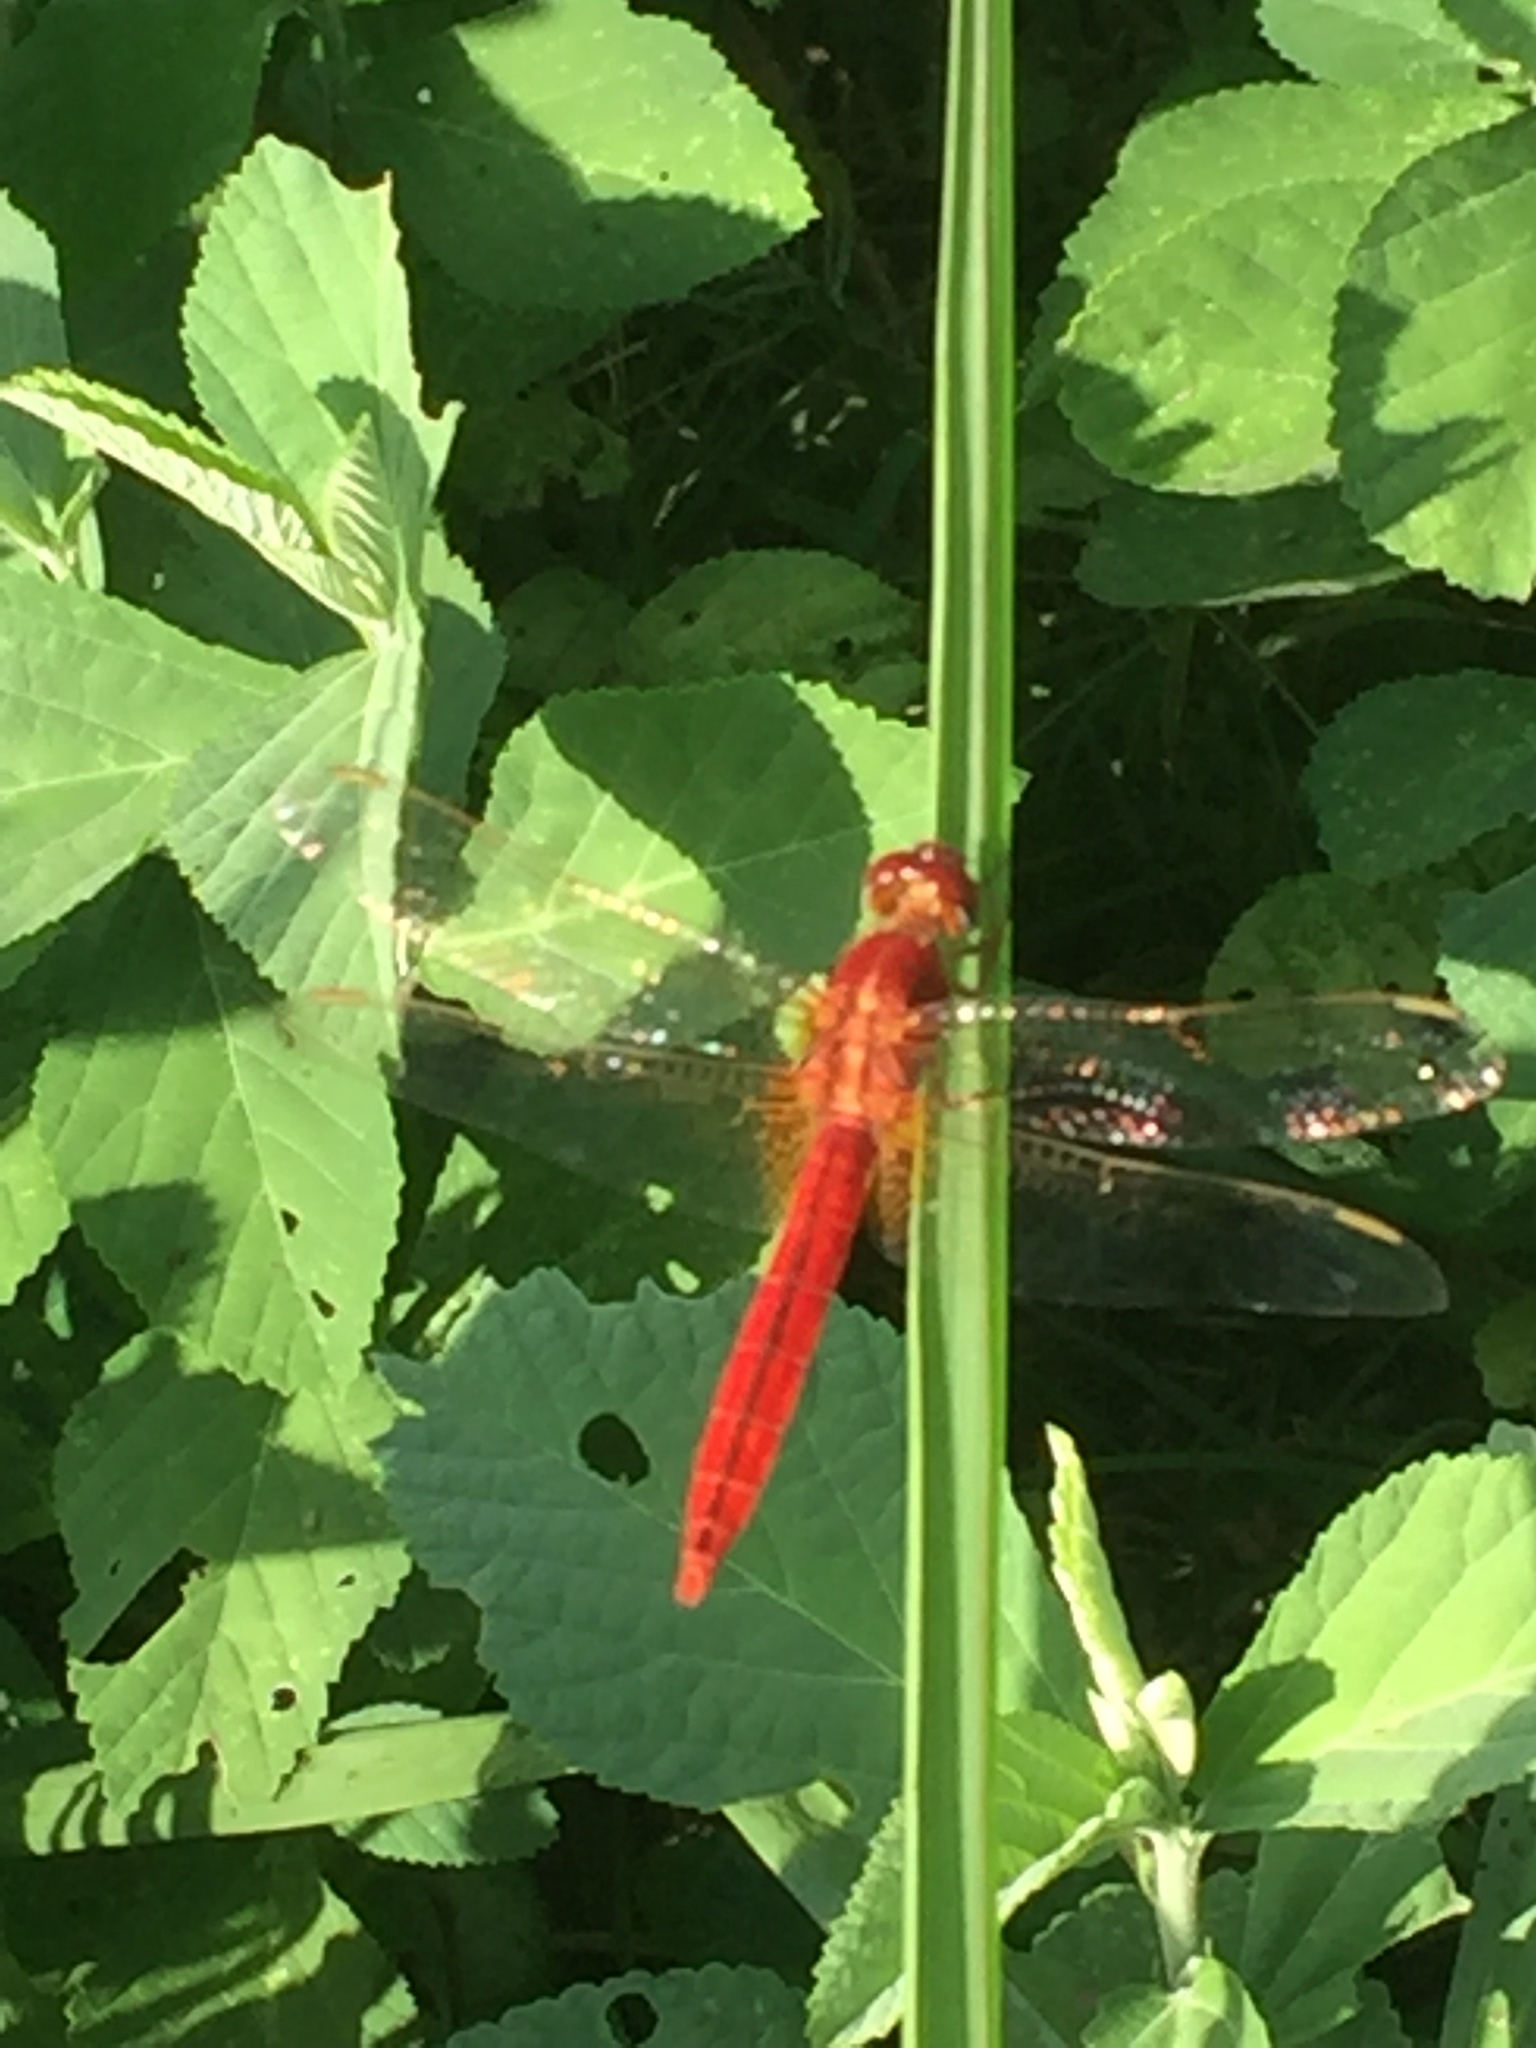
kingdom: Animalia
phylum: Arthropoda
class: Insecta
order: Odonata
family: Libellulidae
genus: Crocothemis
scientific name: Crocothemis servilia
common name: Scarlet skimmer
